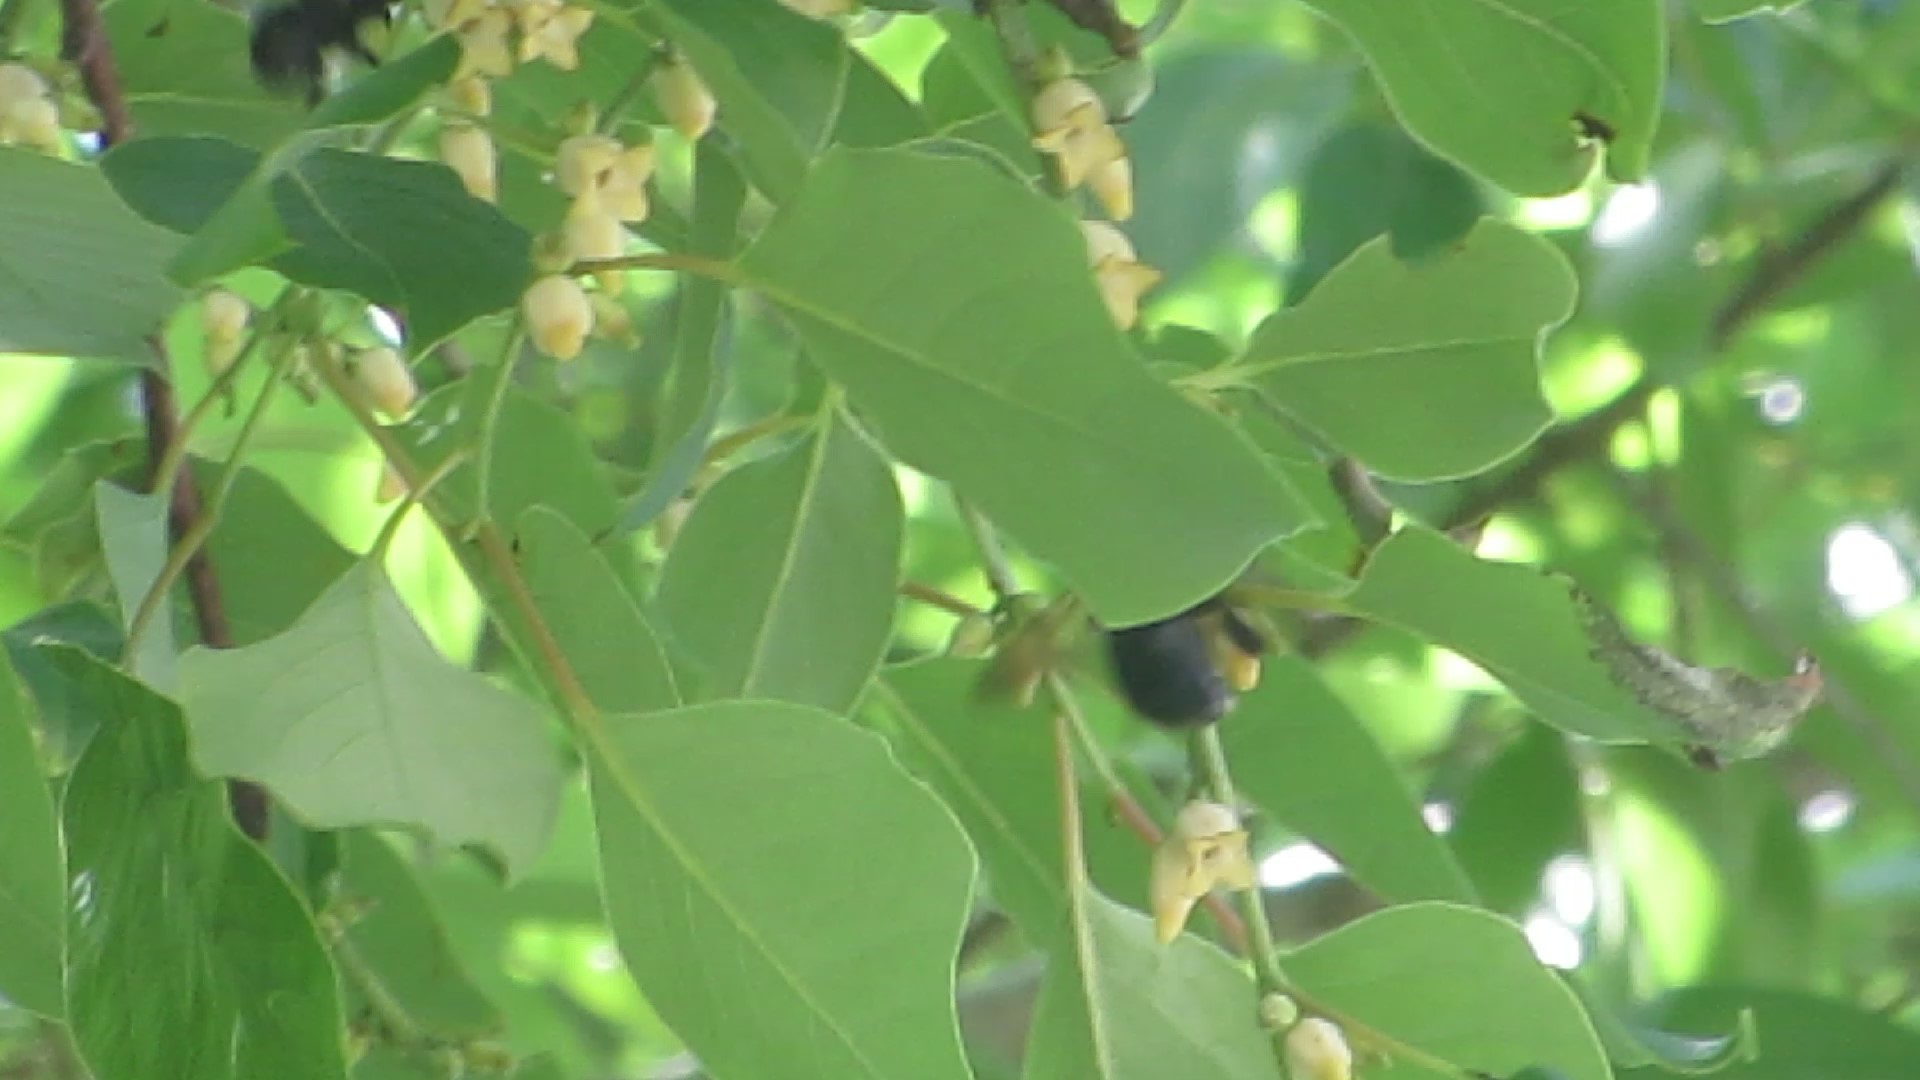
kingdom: Animalia
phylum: Arthropoda
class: Insecta
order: Hymenoptera
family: Apidae
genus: Xylocopa
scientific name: Xylocopa micans
